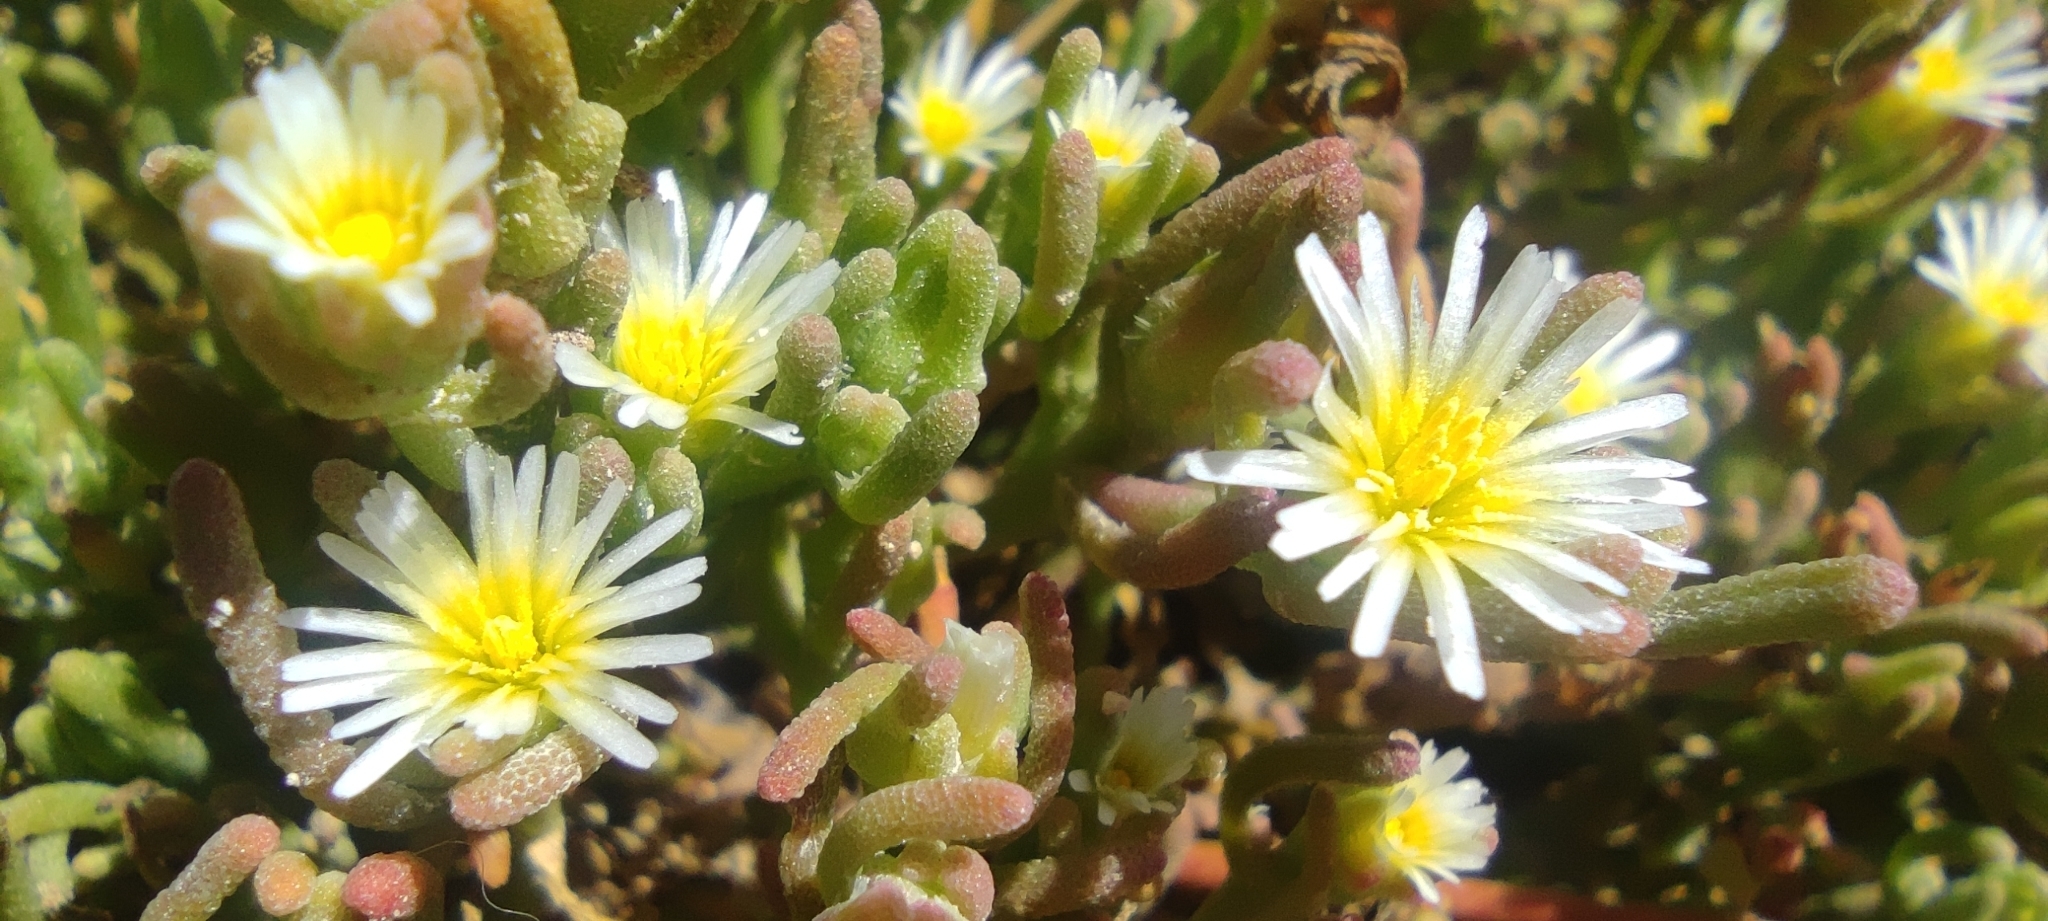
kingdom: Plantae
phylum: Tracheophyta
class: Magnoliopsida
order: Caryophyllales
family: Aizoaceae
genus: Mesembryanthemum
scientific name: Mesembryanthemum nodiflorum
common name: Slenderleaf iceplant
